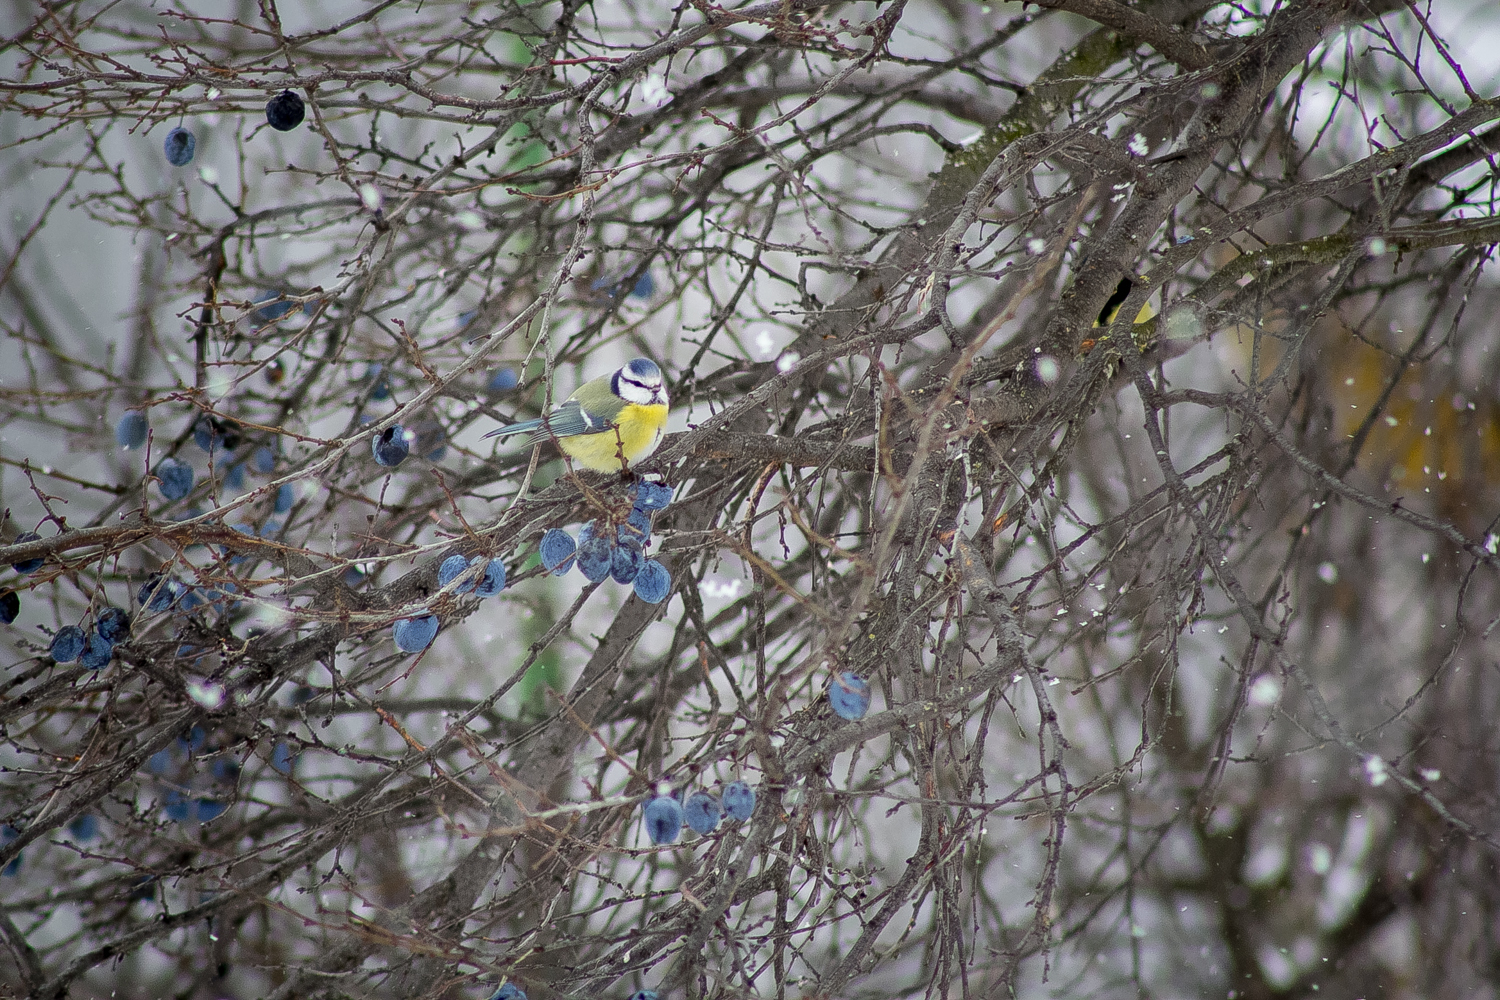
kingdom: Animalia
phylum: Chordata
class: Aves
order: Passeriformes
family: Paridae
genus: Cyanistes
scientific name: Cyanistes caeruleus
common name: Eurasian blue tit
